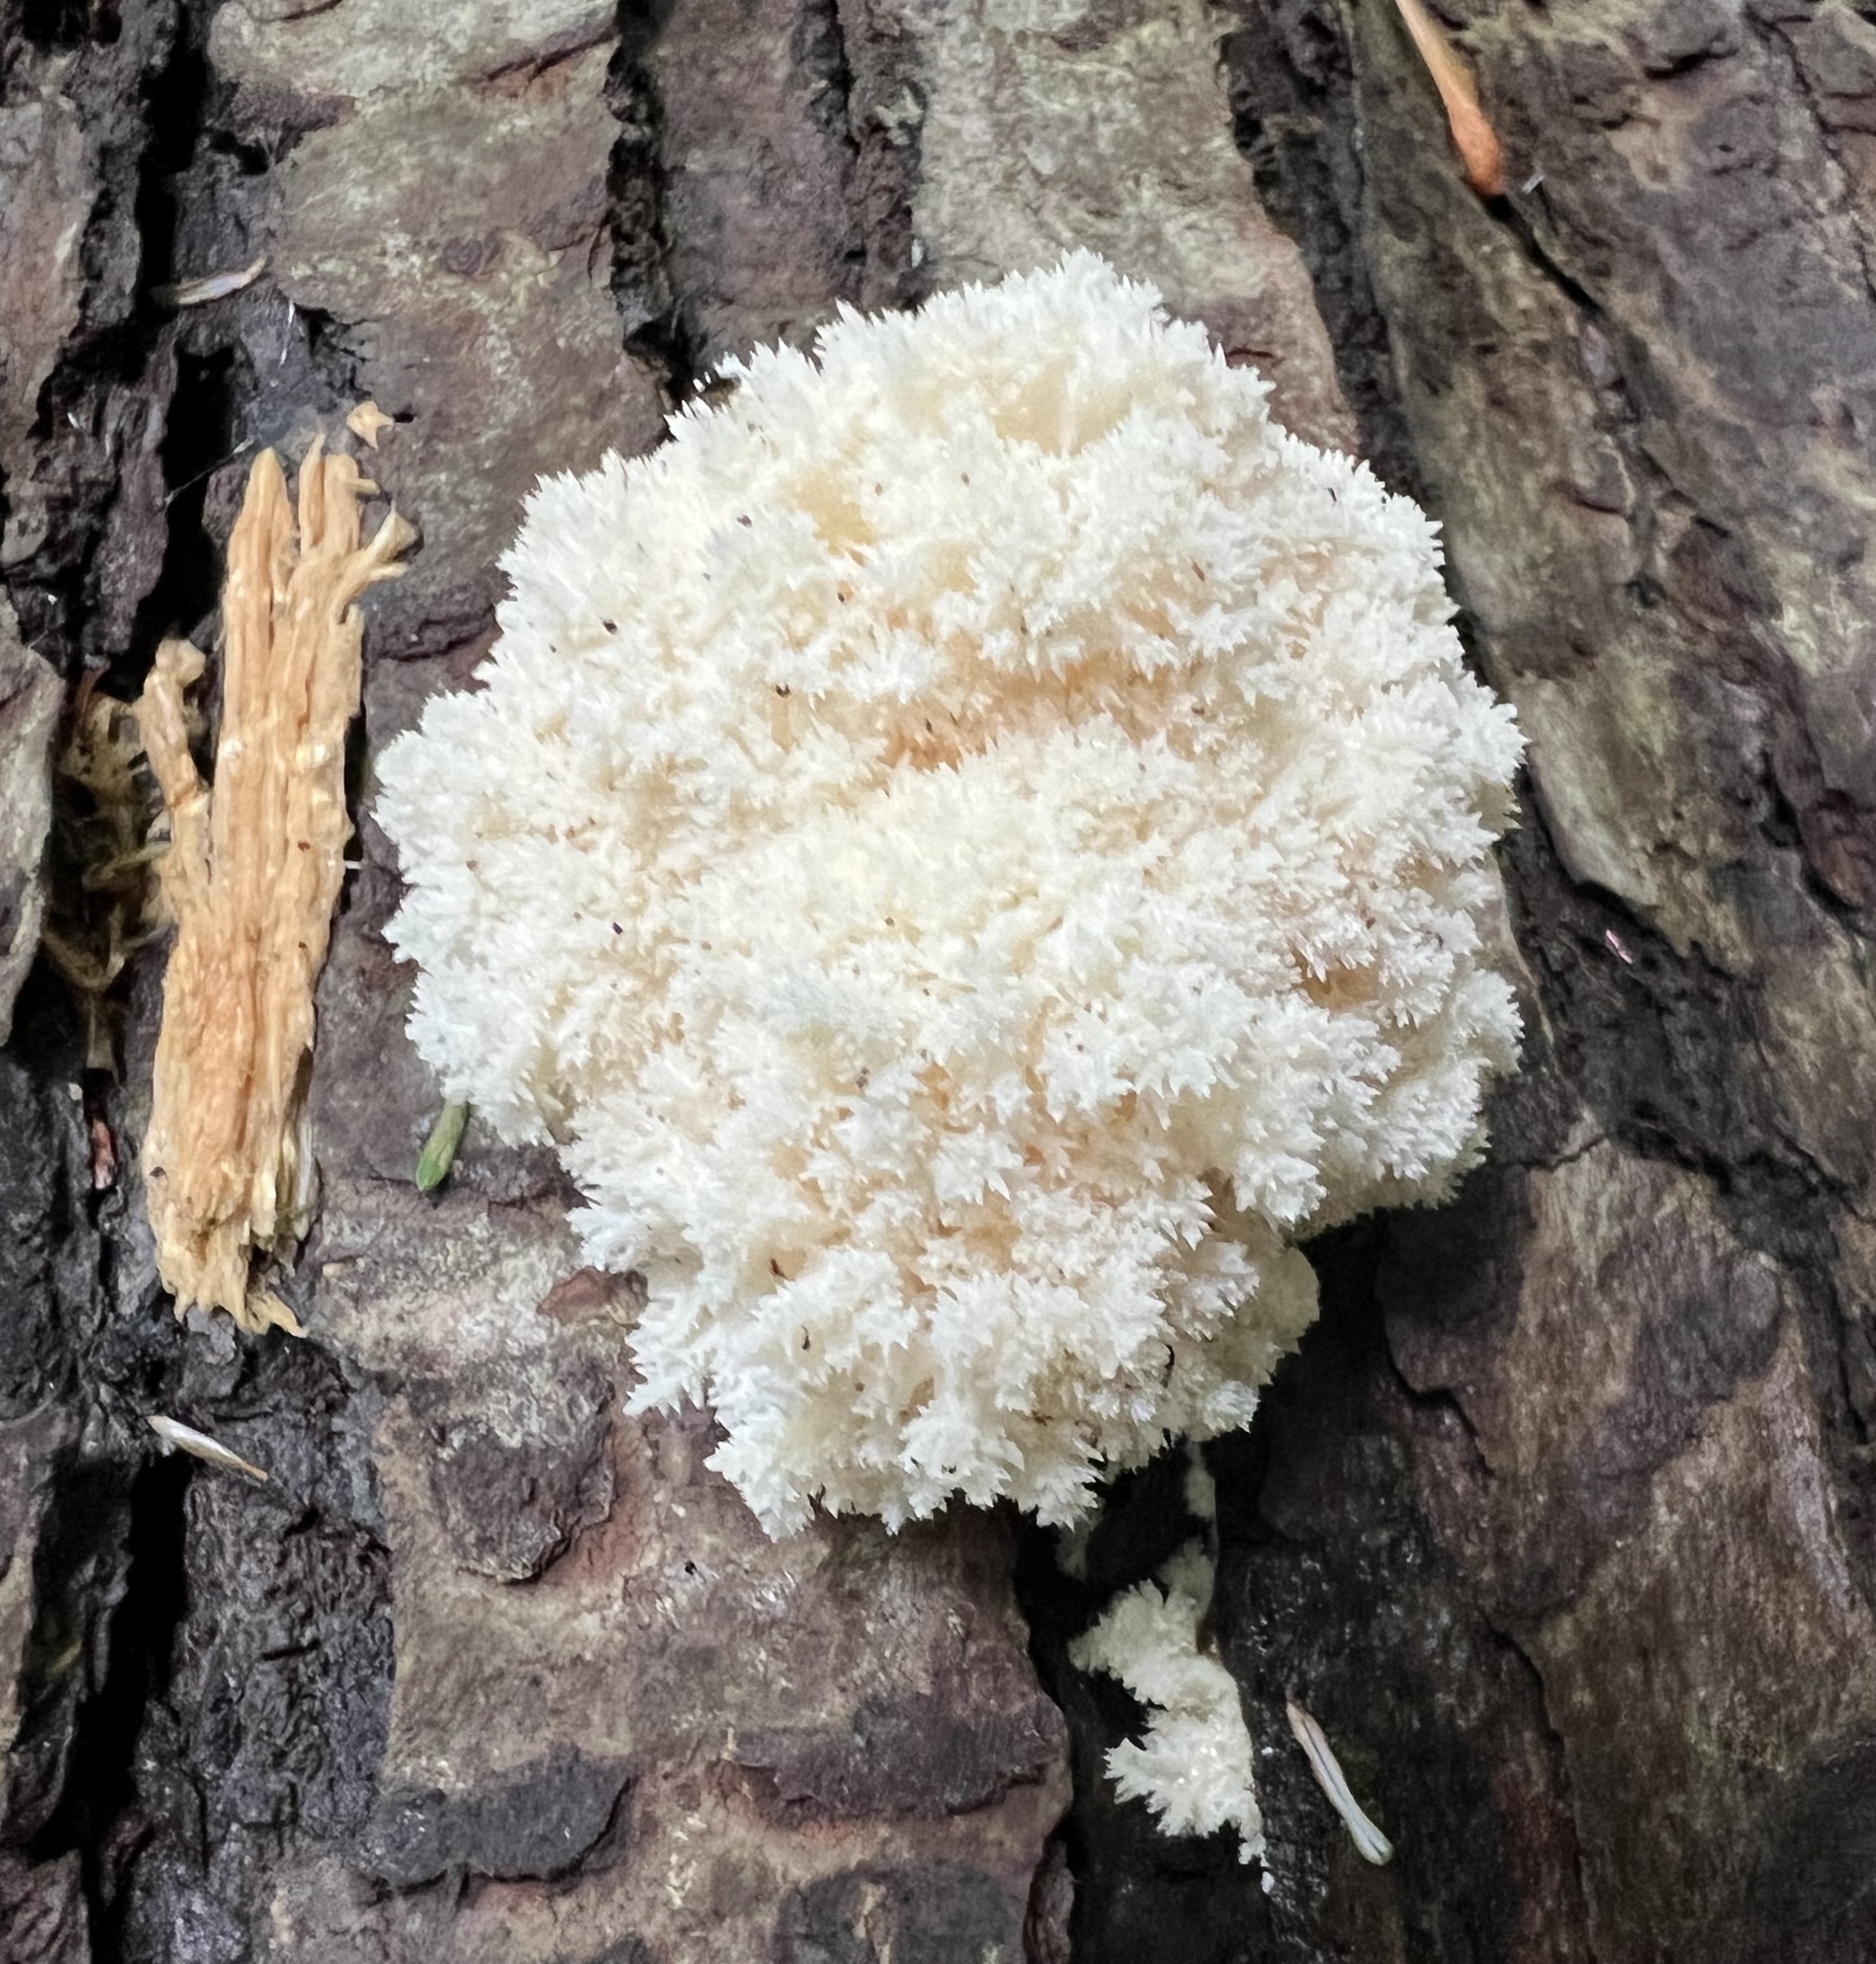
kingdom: Fungi
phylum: Basidiomycota
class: Agaricomycetes
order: Russulales
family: Hericiaceae
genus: Hericium
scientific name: Hericium coralloides
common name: Coral tooth
